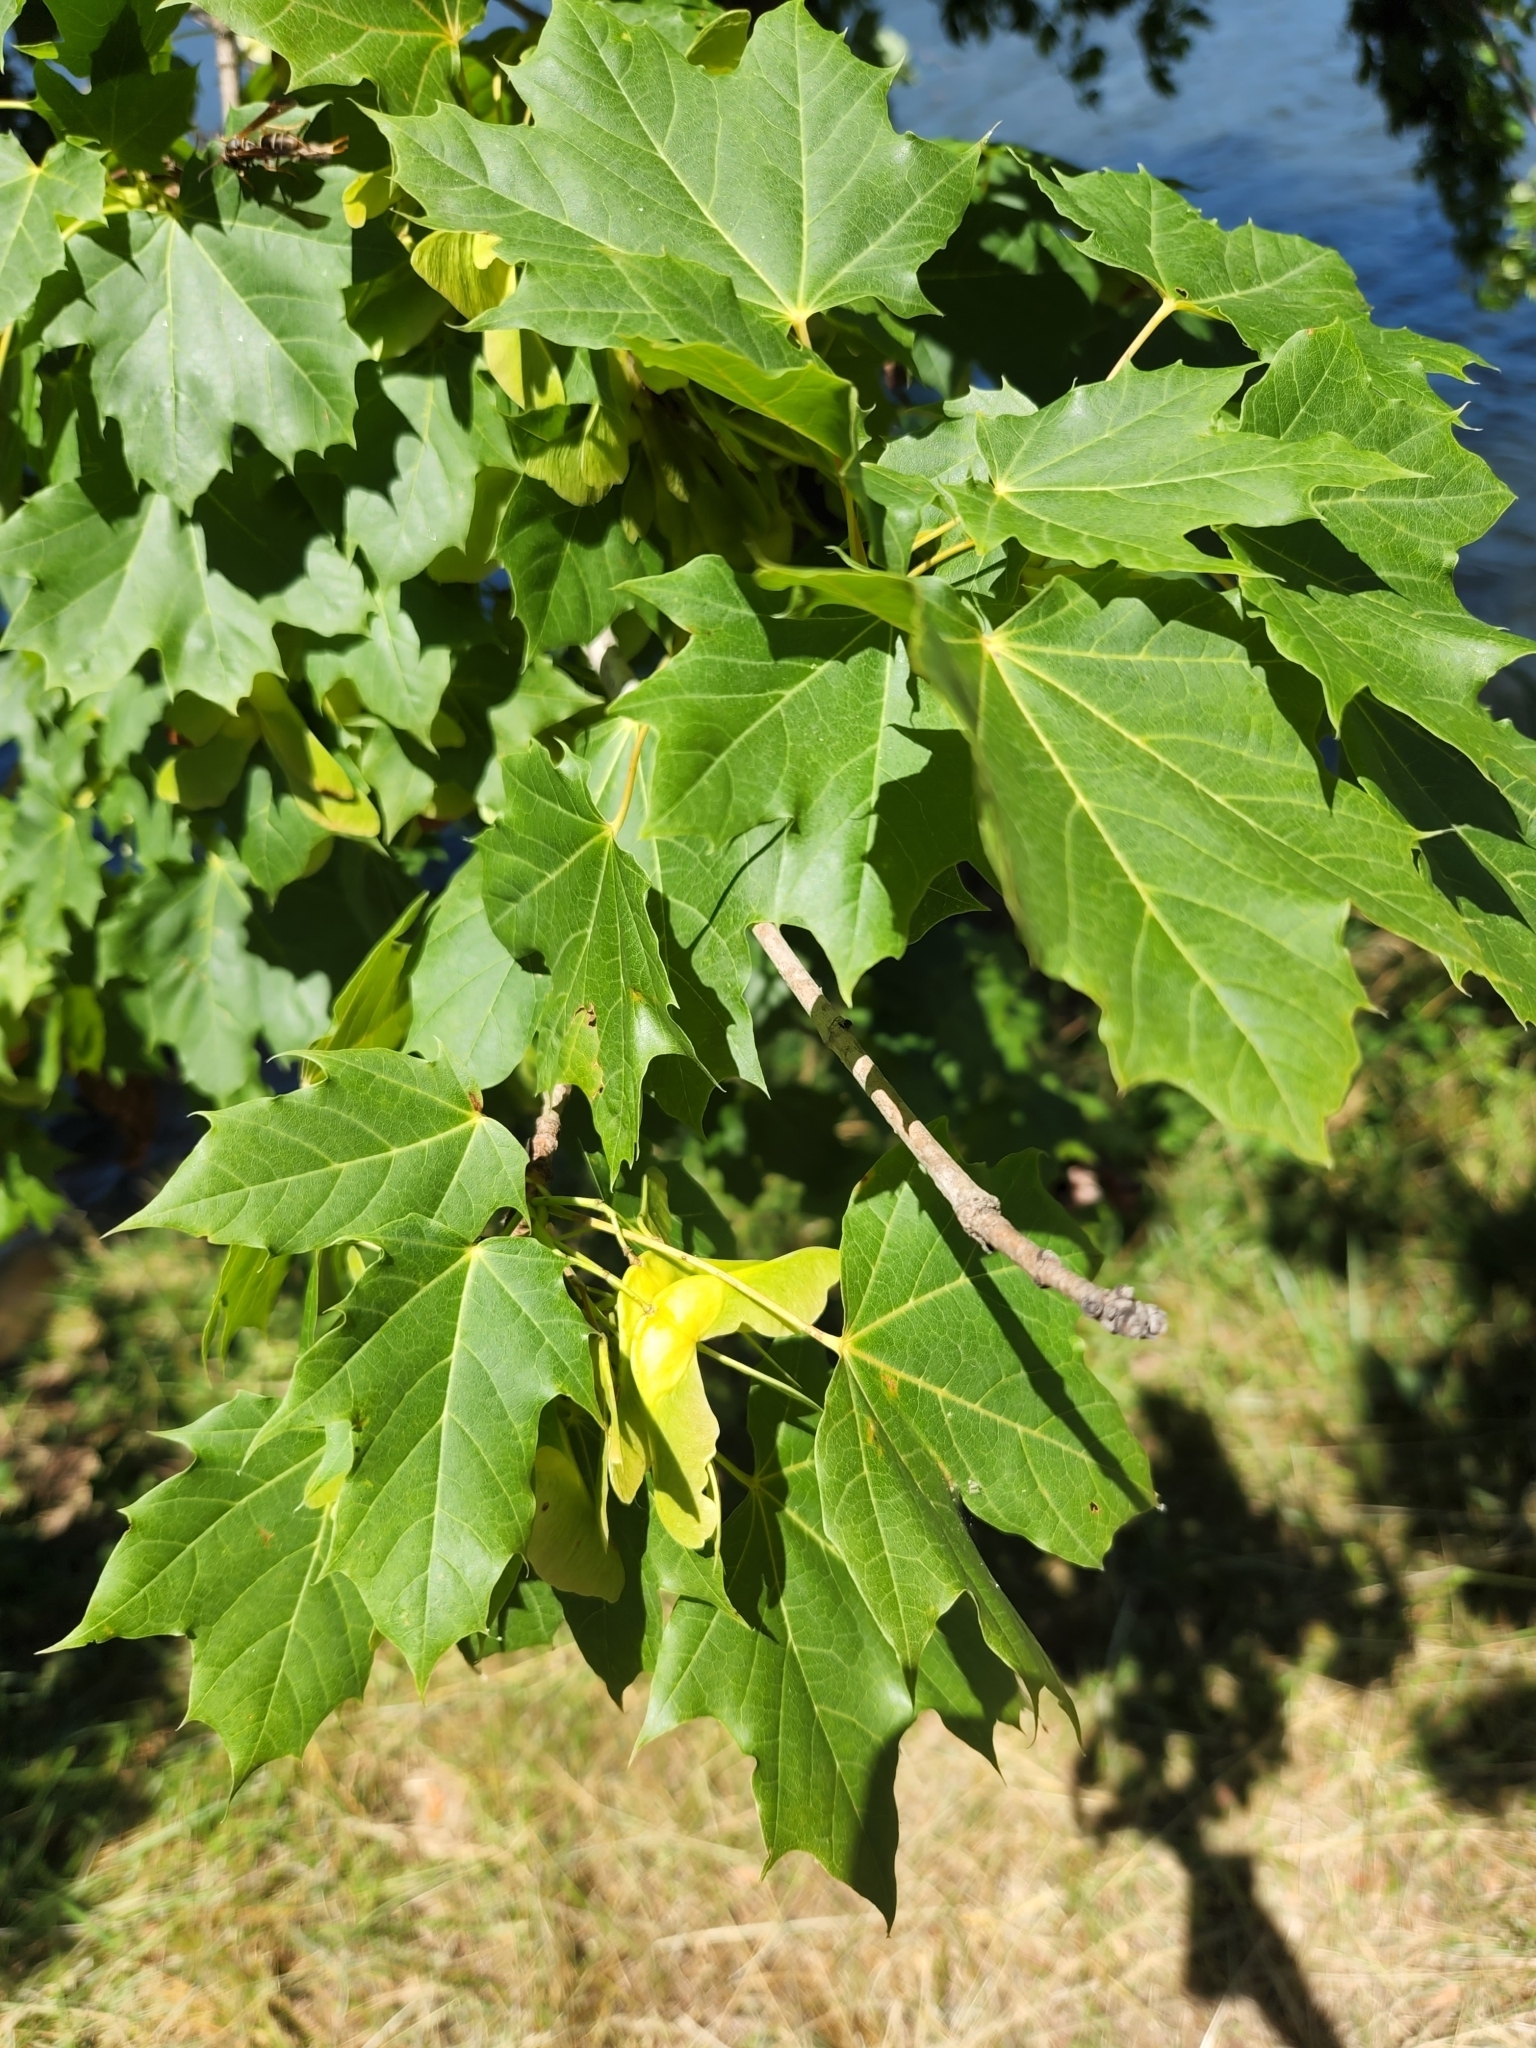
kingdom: Plantae
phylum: Tracheophyta
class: Magnoliopsida
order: Sapindales
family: Sapindaceae
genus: Acer
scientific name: Acer platanoides
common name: Norway maple
